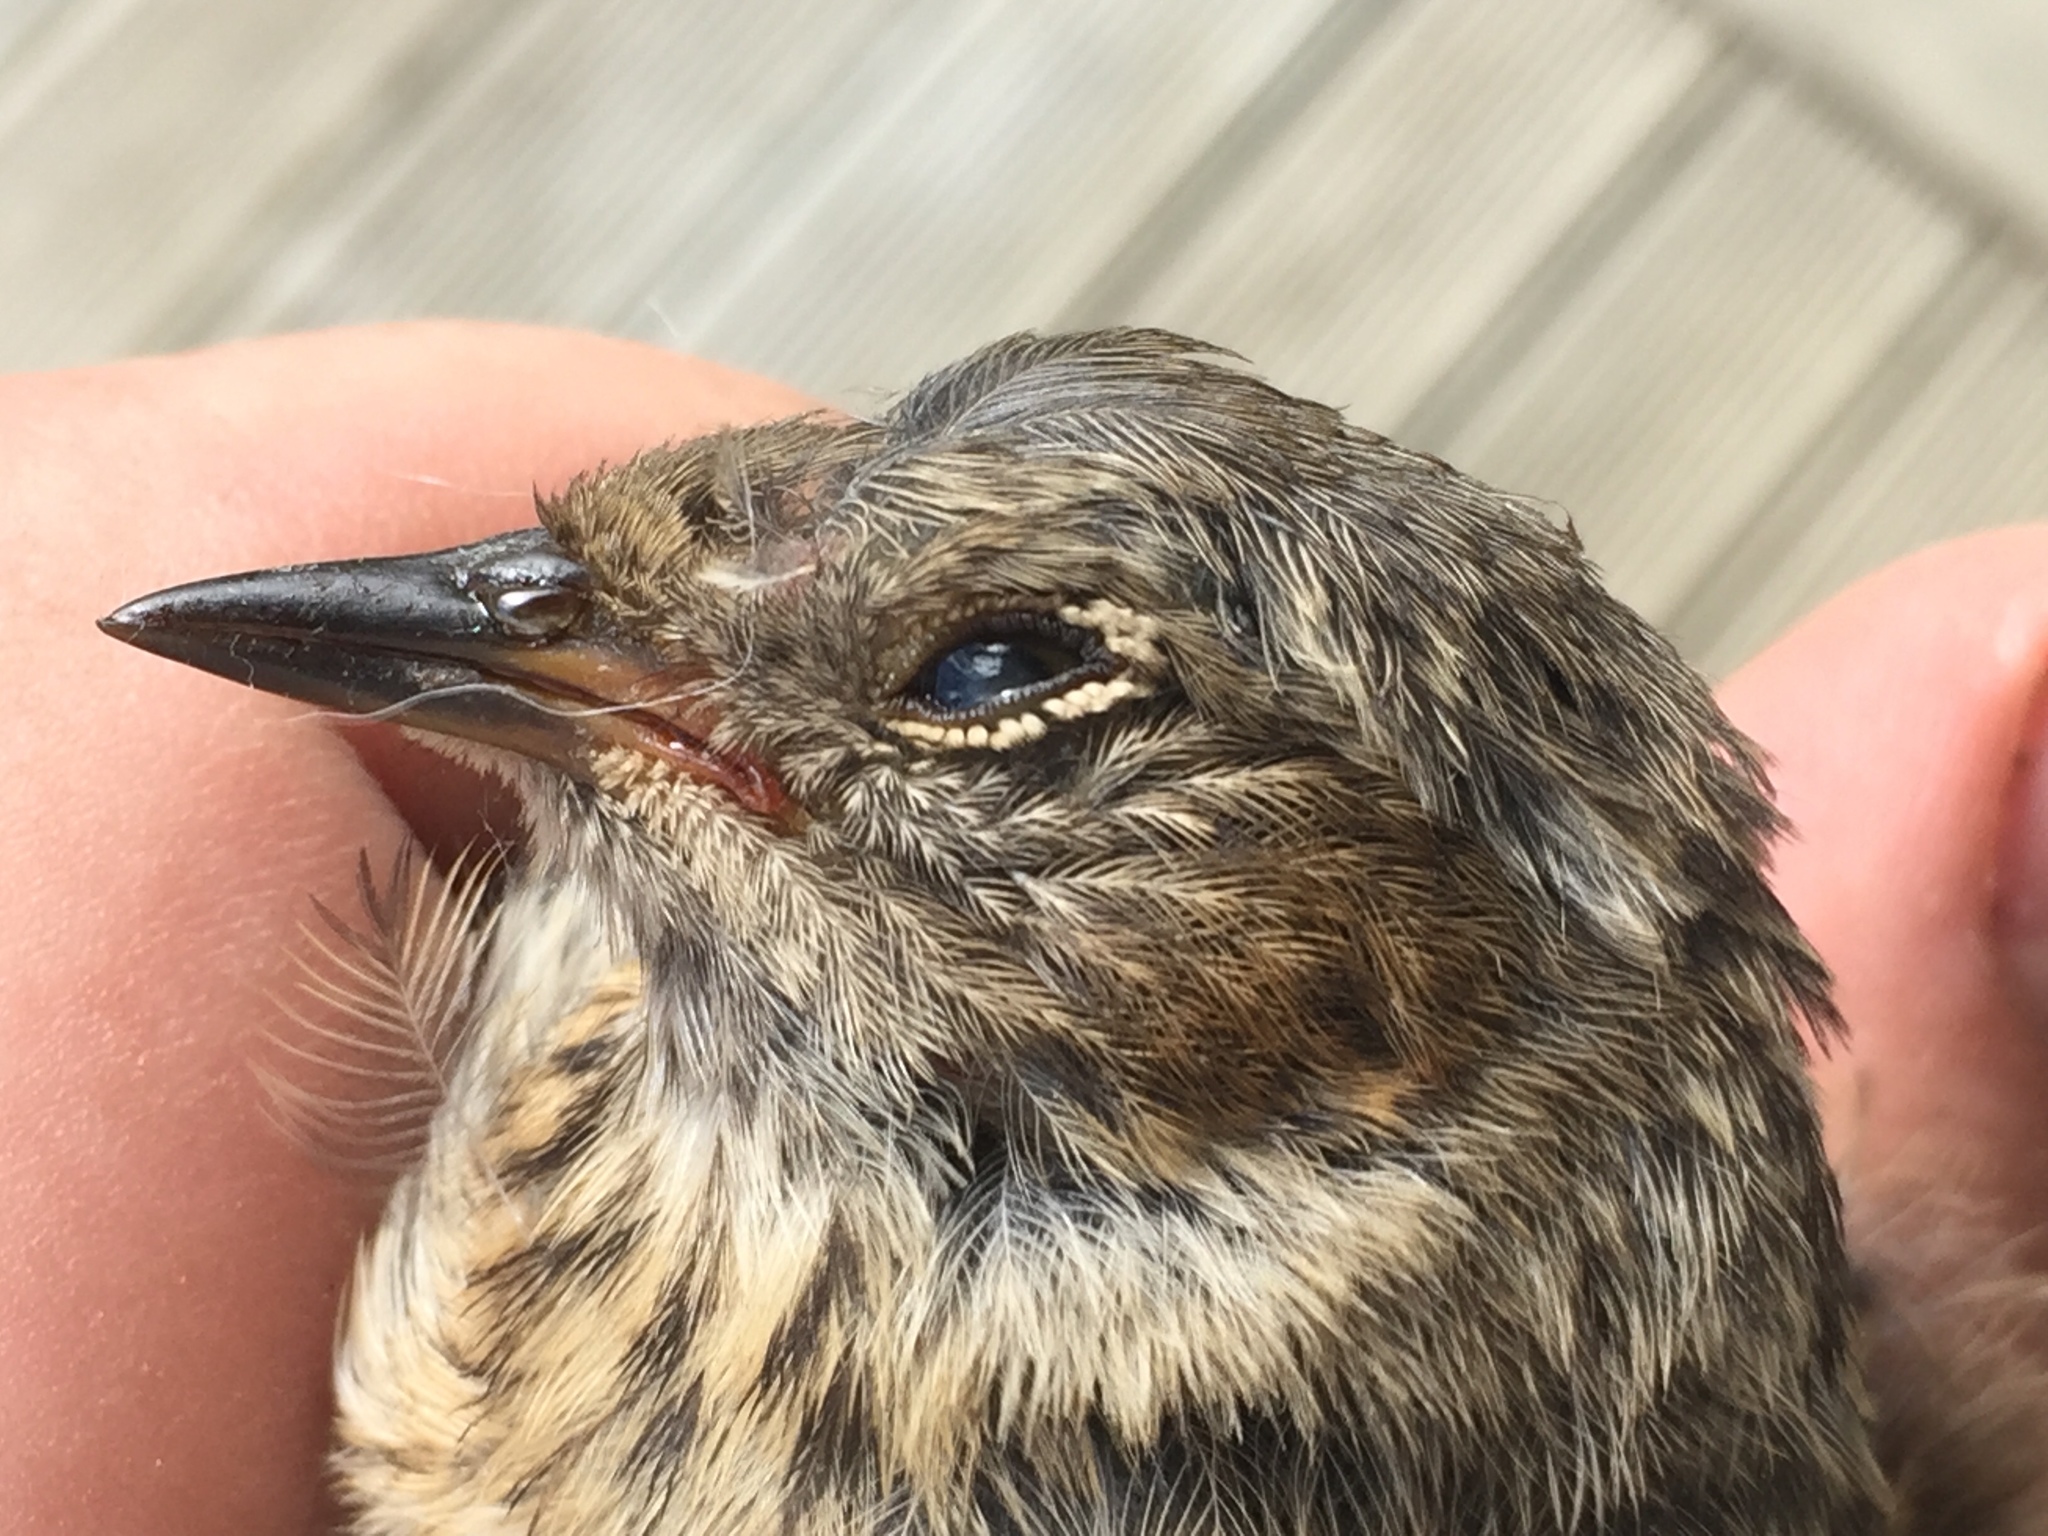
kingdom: Animalia
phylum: Chordata
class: Aves
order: Passeriformes
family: Prunellidae
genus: Prunella
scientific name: Prunella modularis
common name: Dunnock
